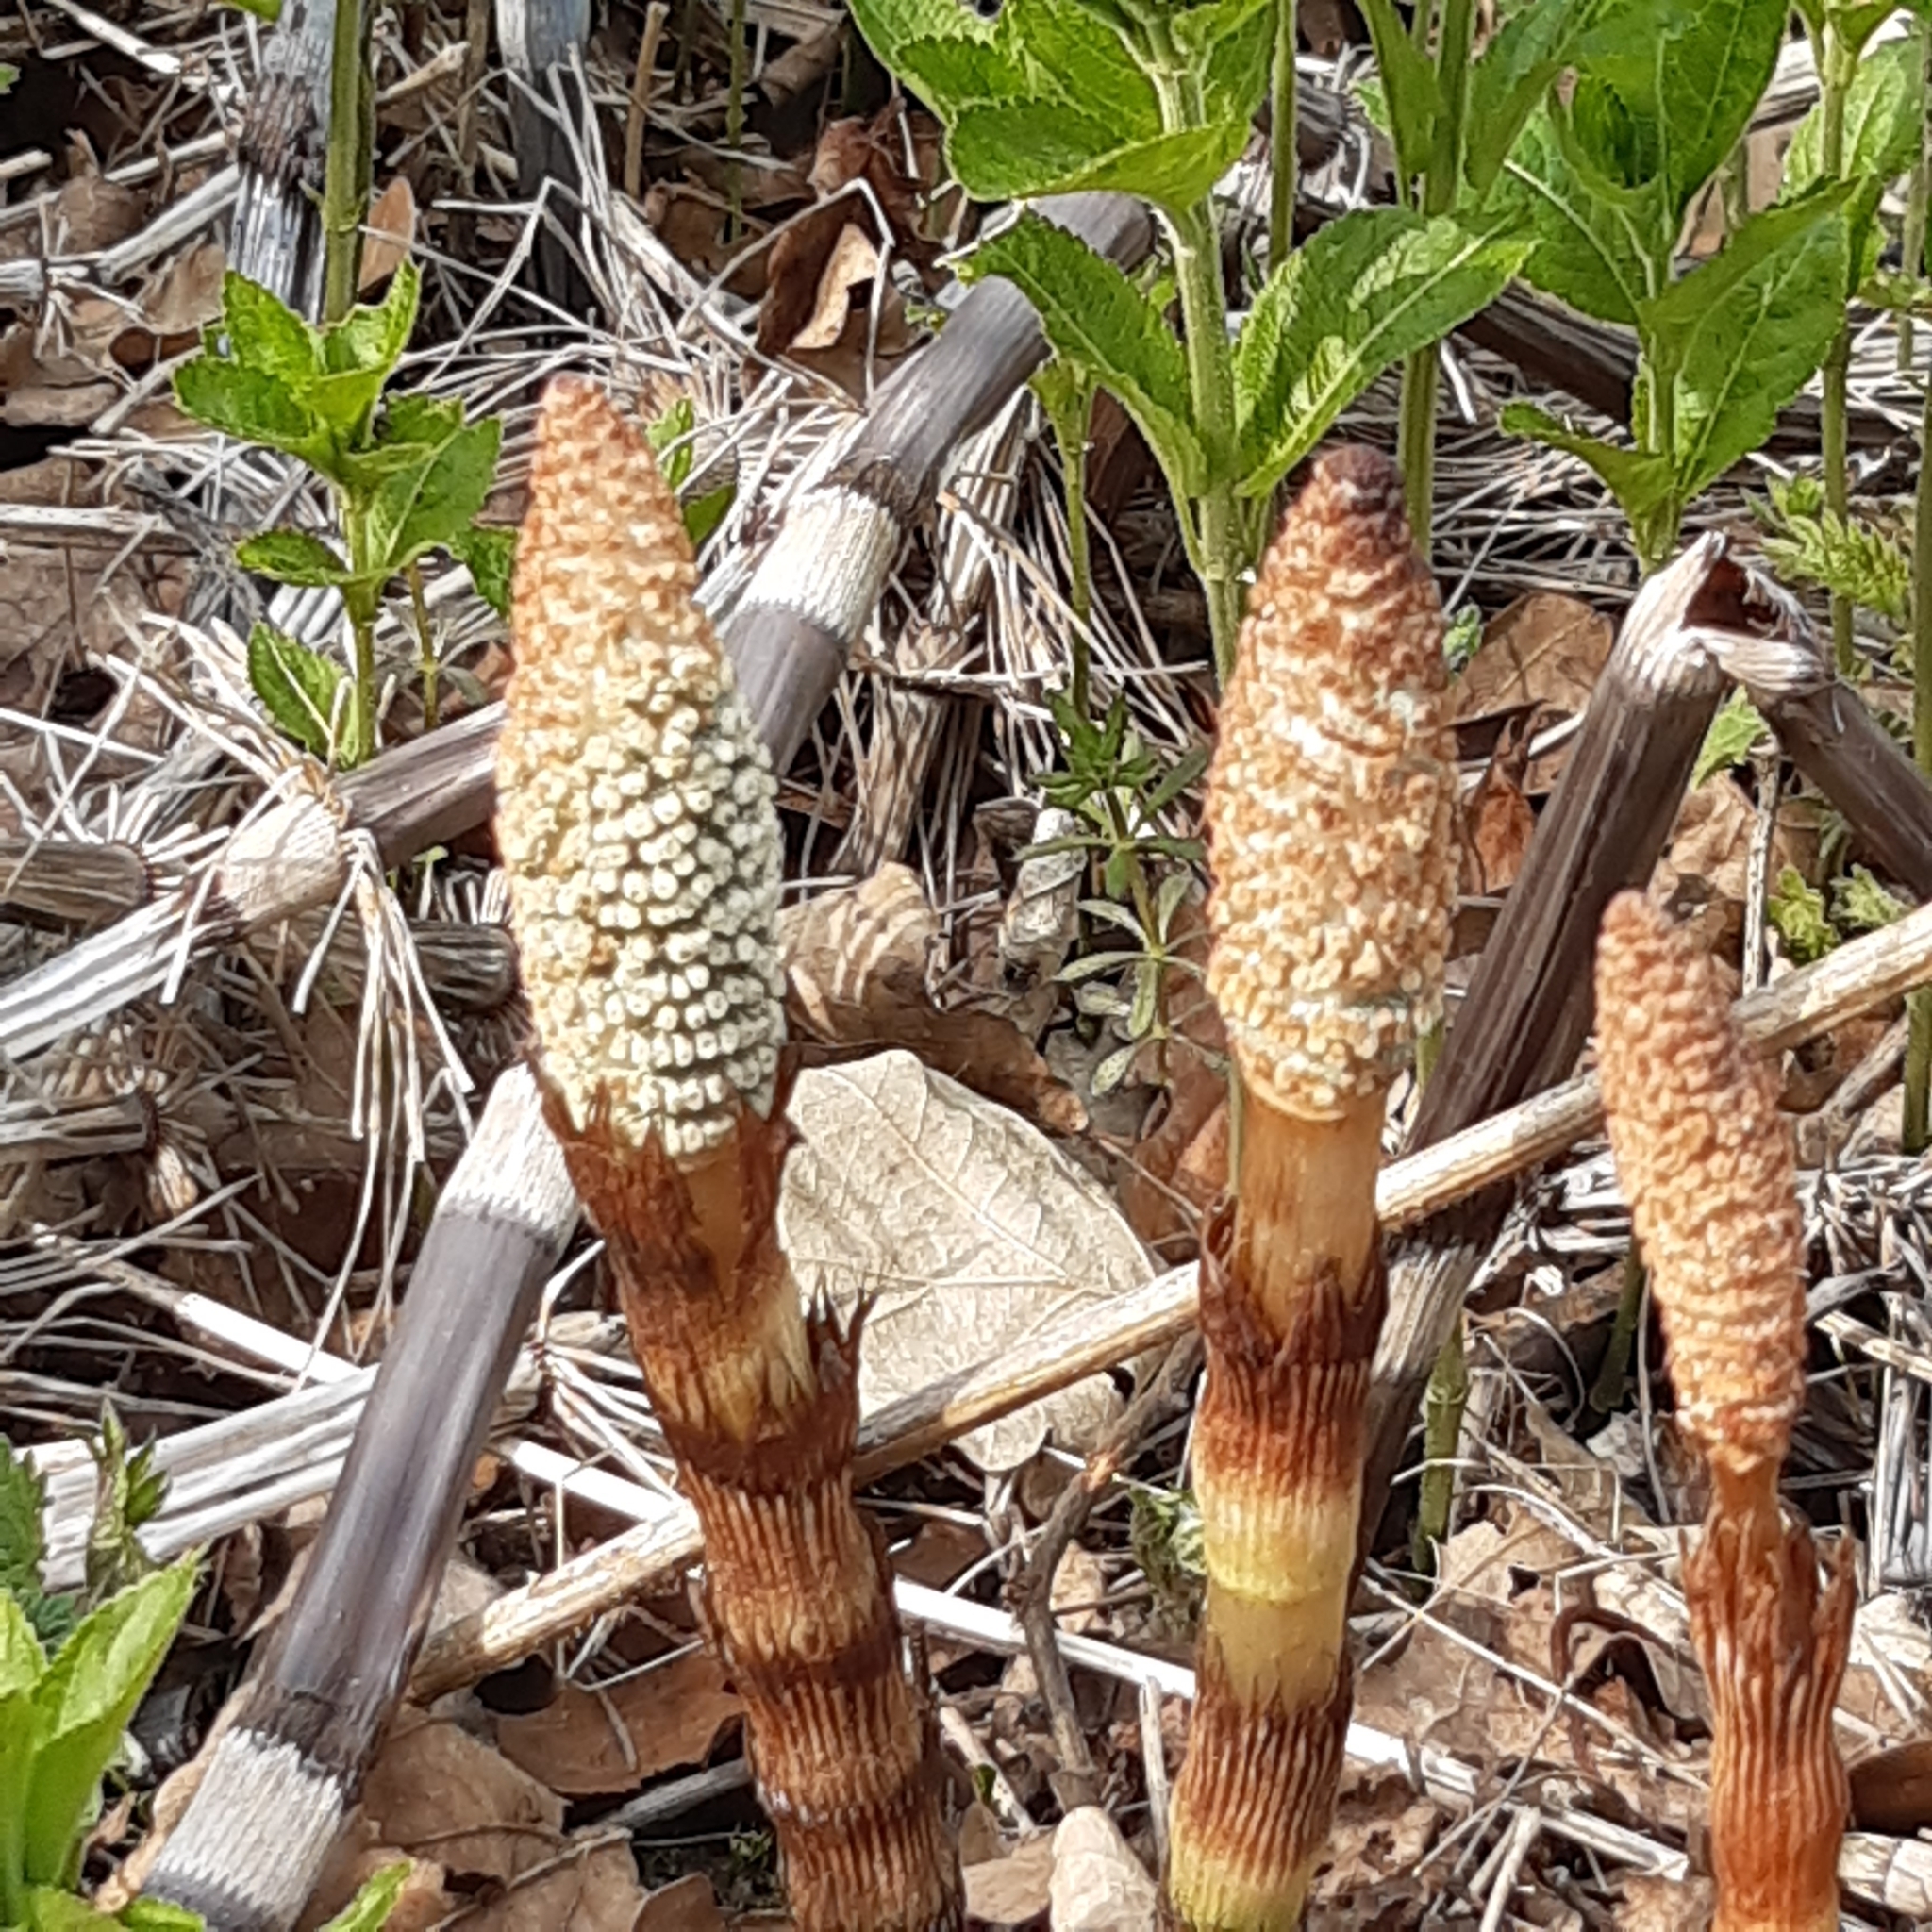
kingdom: Plantae
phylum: Tracheophyta
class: Polypodiopsida
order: Equisetales
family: Equisetaceae
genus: Equisetum
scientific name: Equisetum telmateia
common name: Great horsetail
